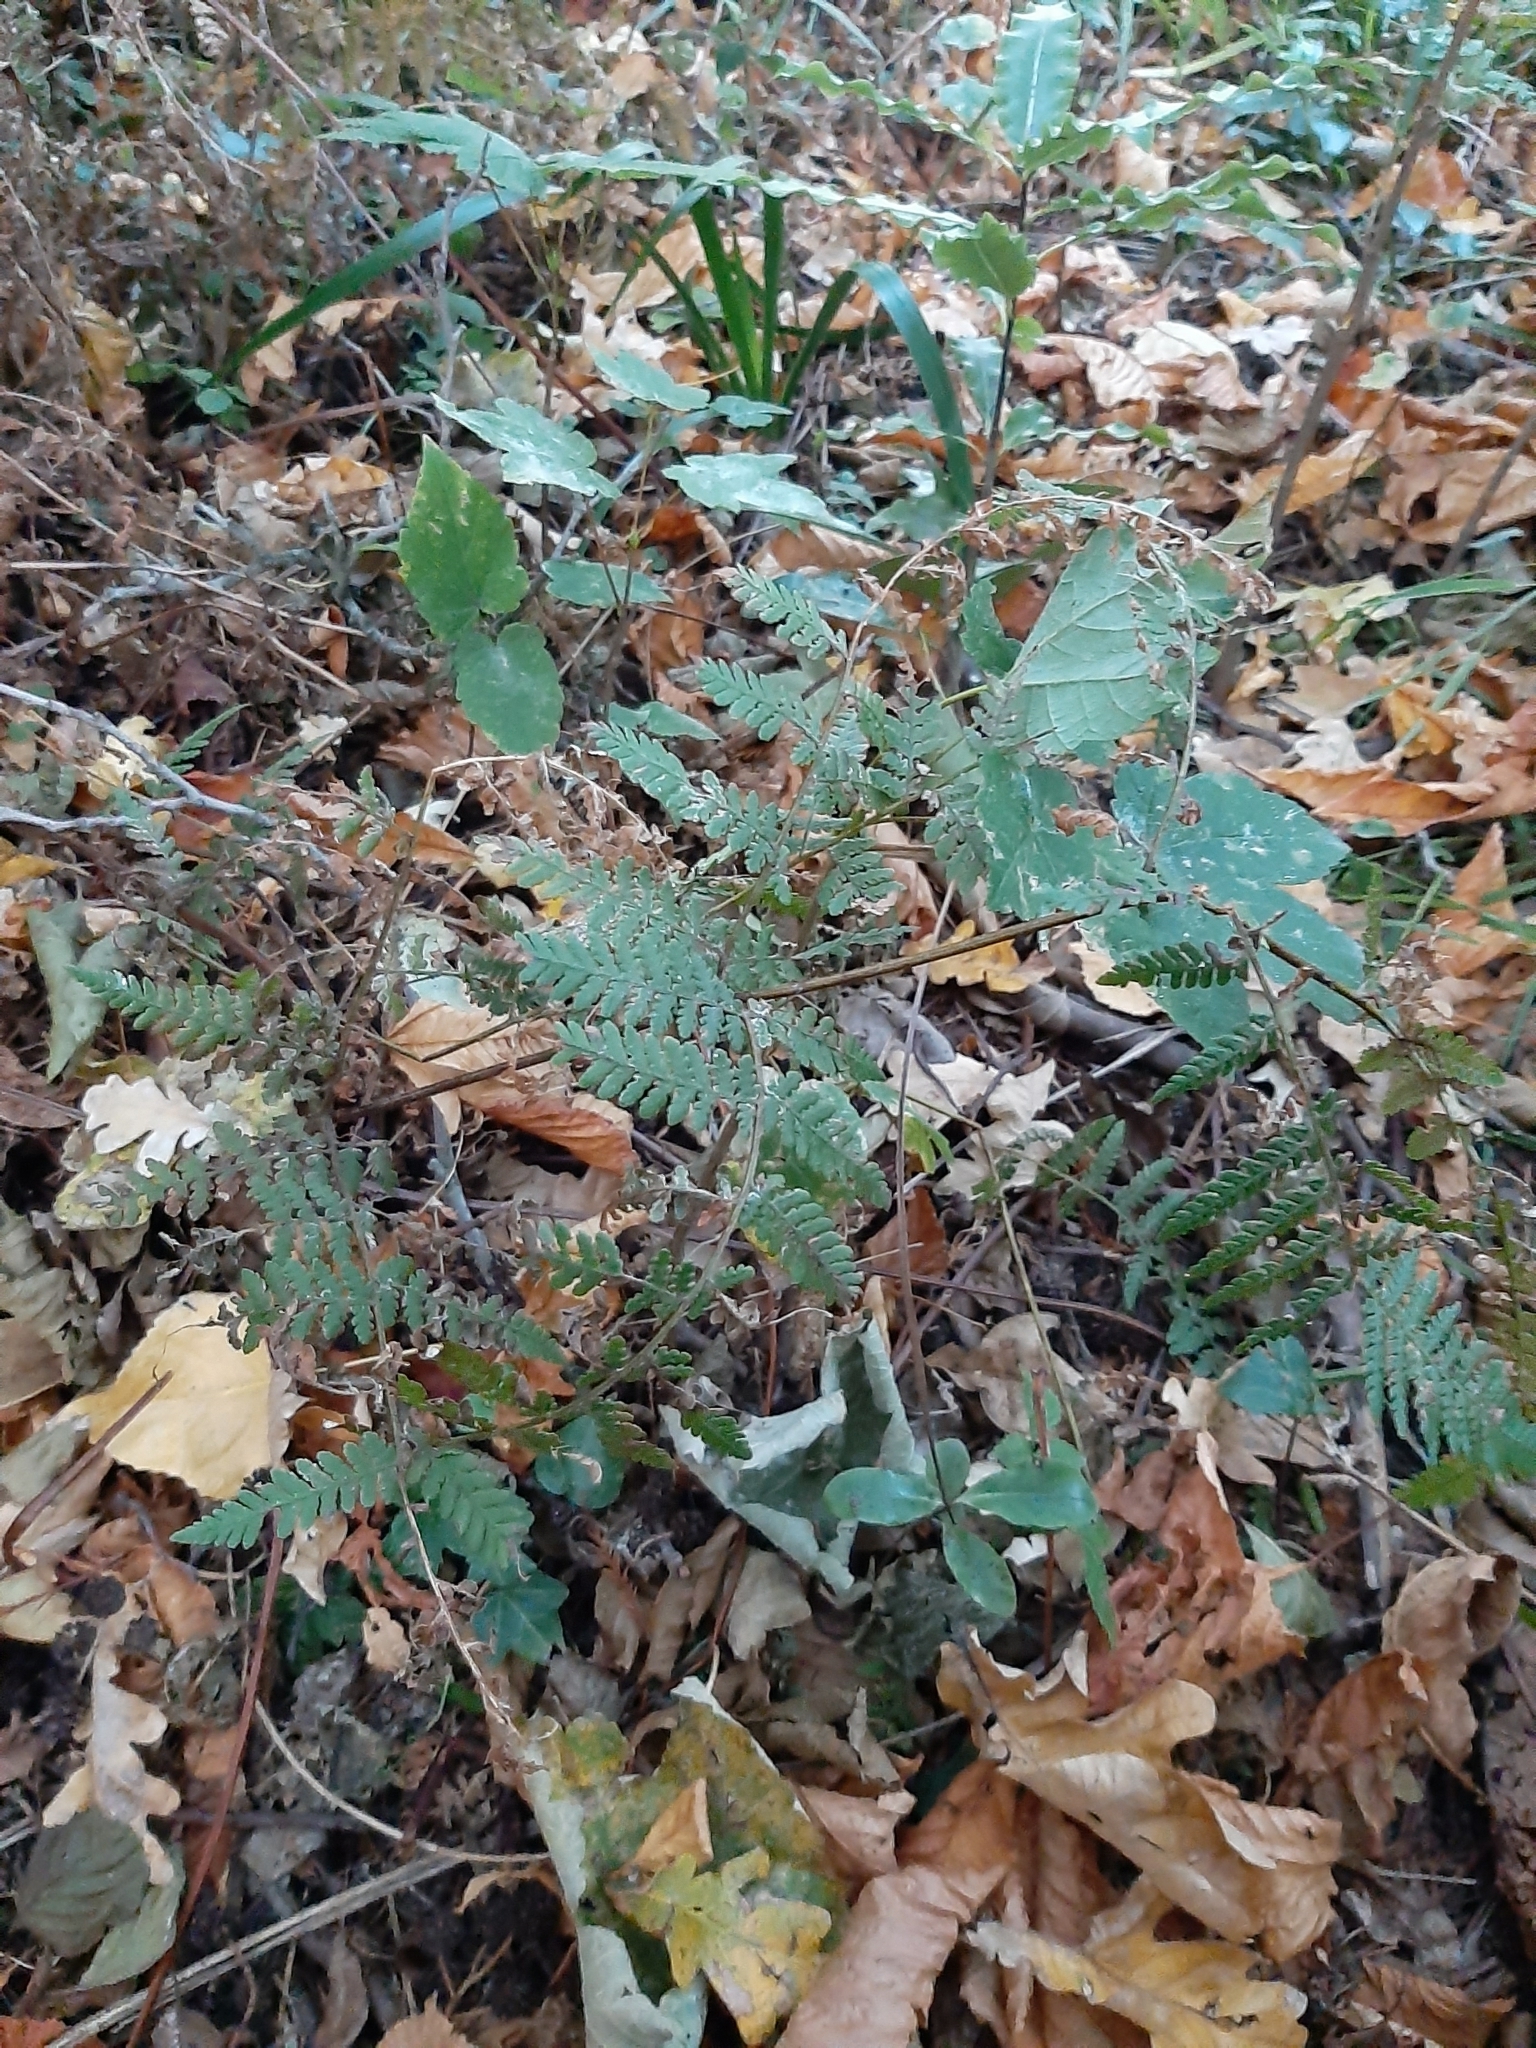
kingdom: Plantae
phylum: Tracheophyta
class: Polypodiopsida
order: Polypodiales
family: Dennstaedtiaceae
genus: Hypolepis
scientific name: Hypolepis ambigua
